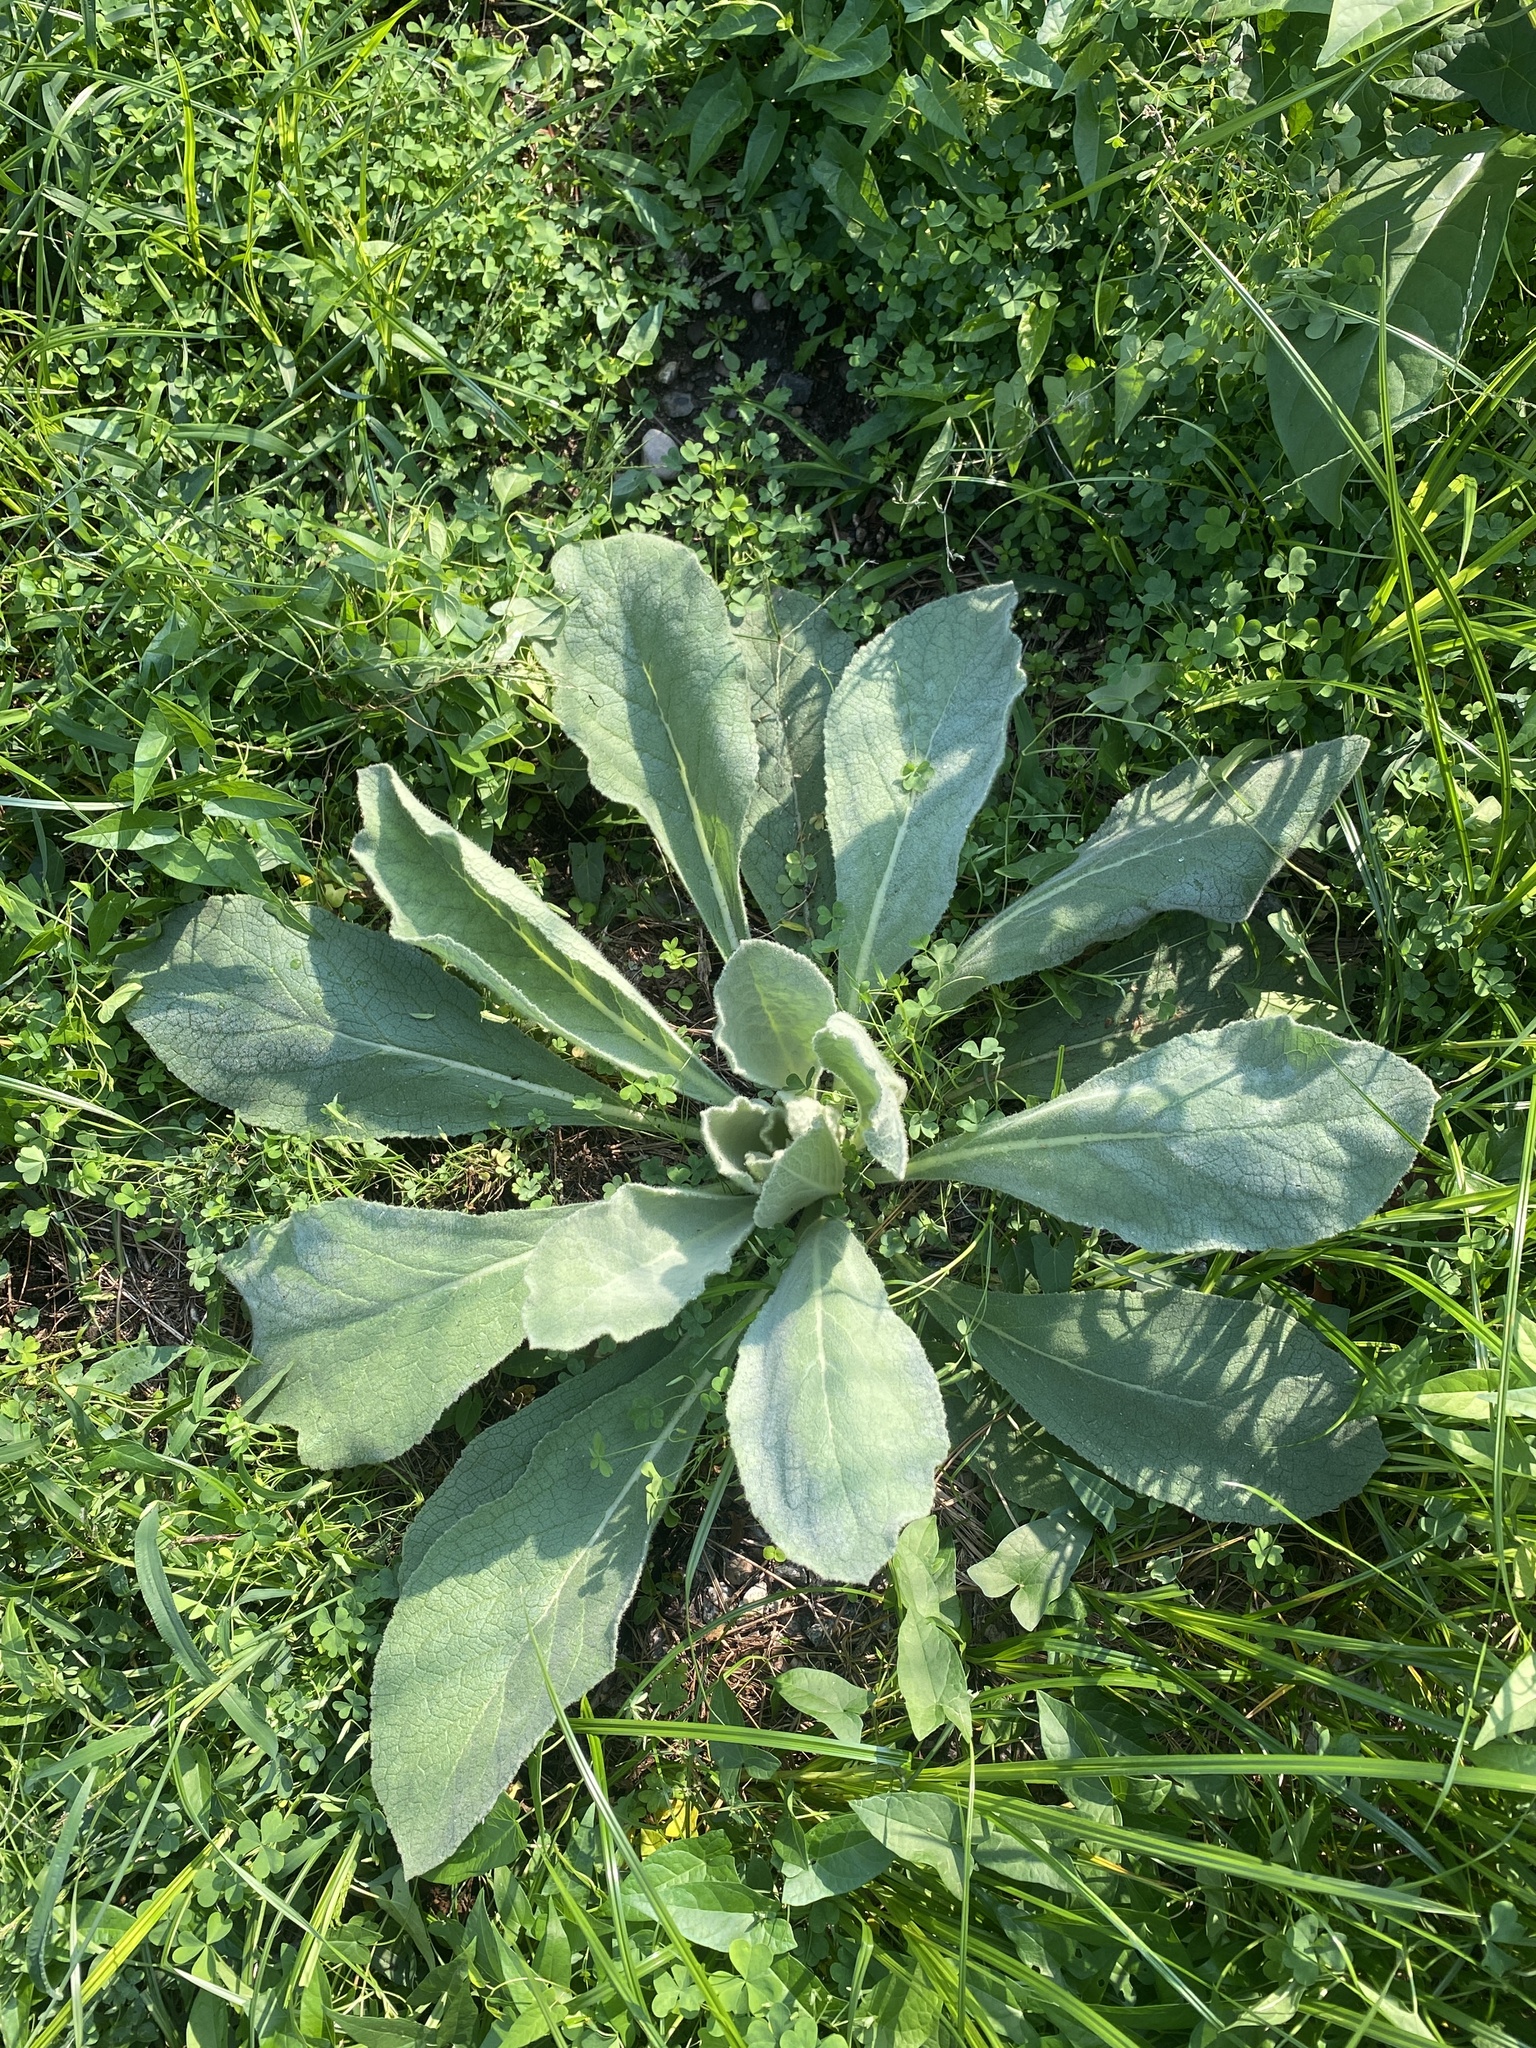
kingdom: Plantae
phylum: Tracheophyta
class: Magnoliopsida
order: Lamiales
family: Scrophulariaceae
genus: Verbascum
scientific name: Verbascum thapsus
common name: Common mullein
